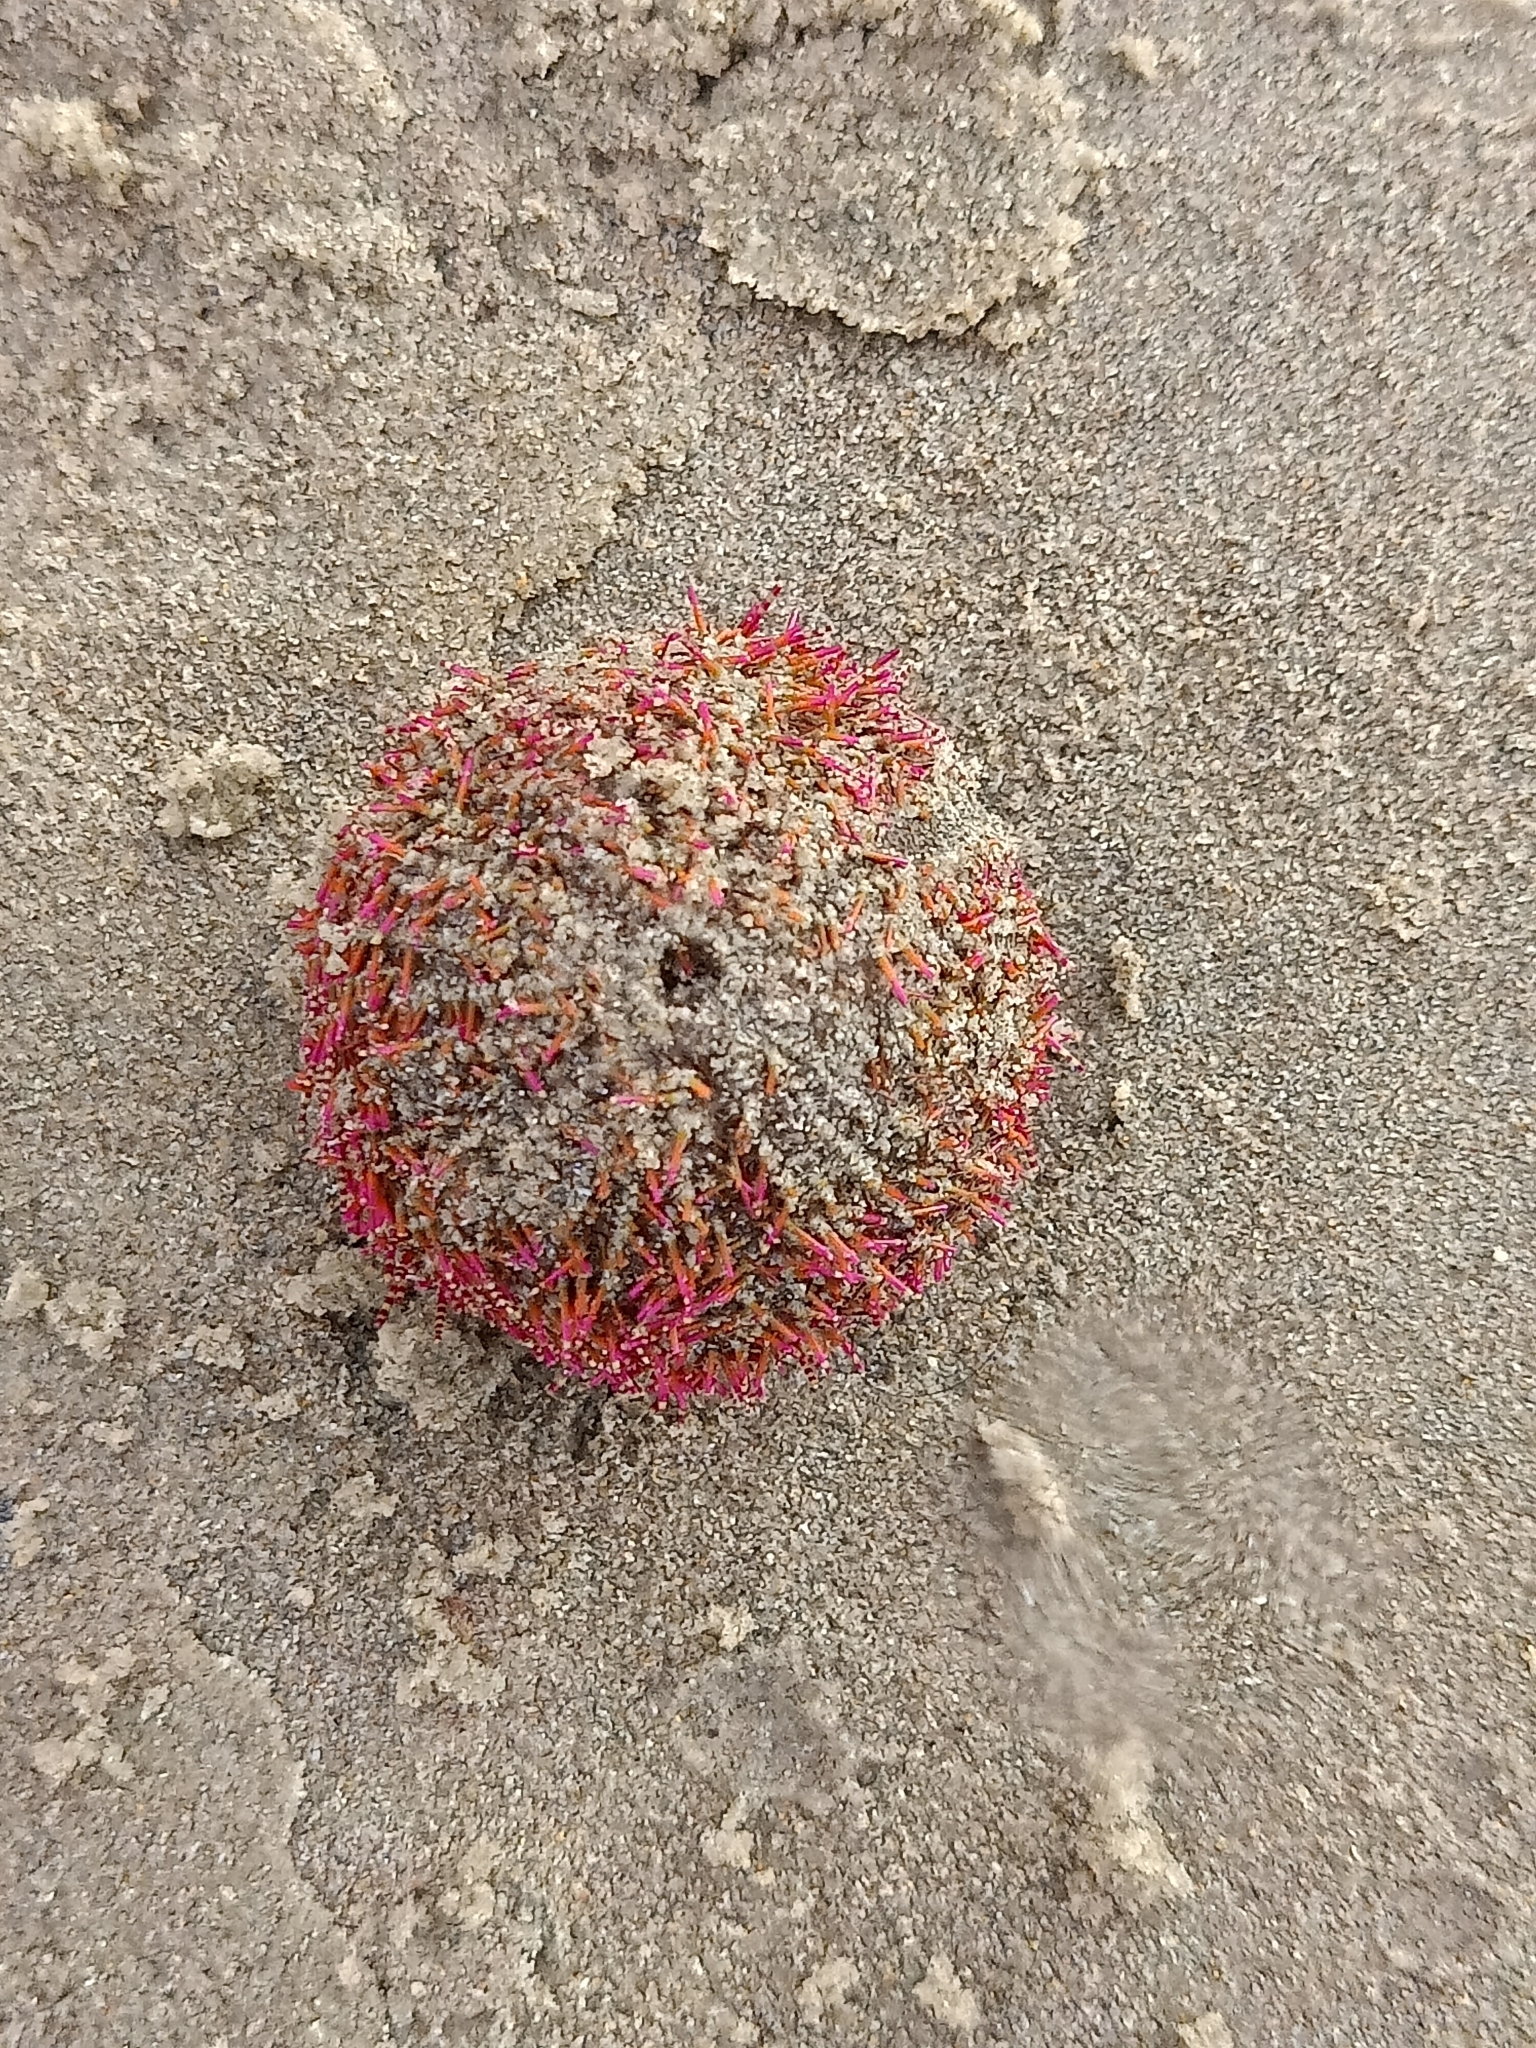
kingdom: Animalia
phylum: Echinodermata
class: Echinoidea
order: Camarodonta
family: Temnopleuridae
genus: Salmacis
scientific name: Salmacis bicolor
